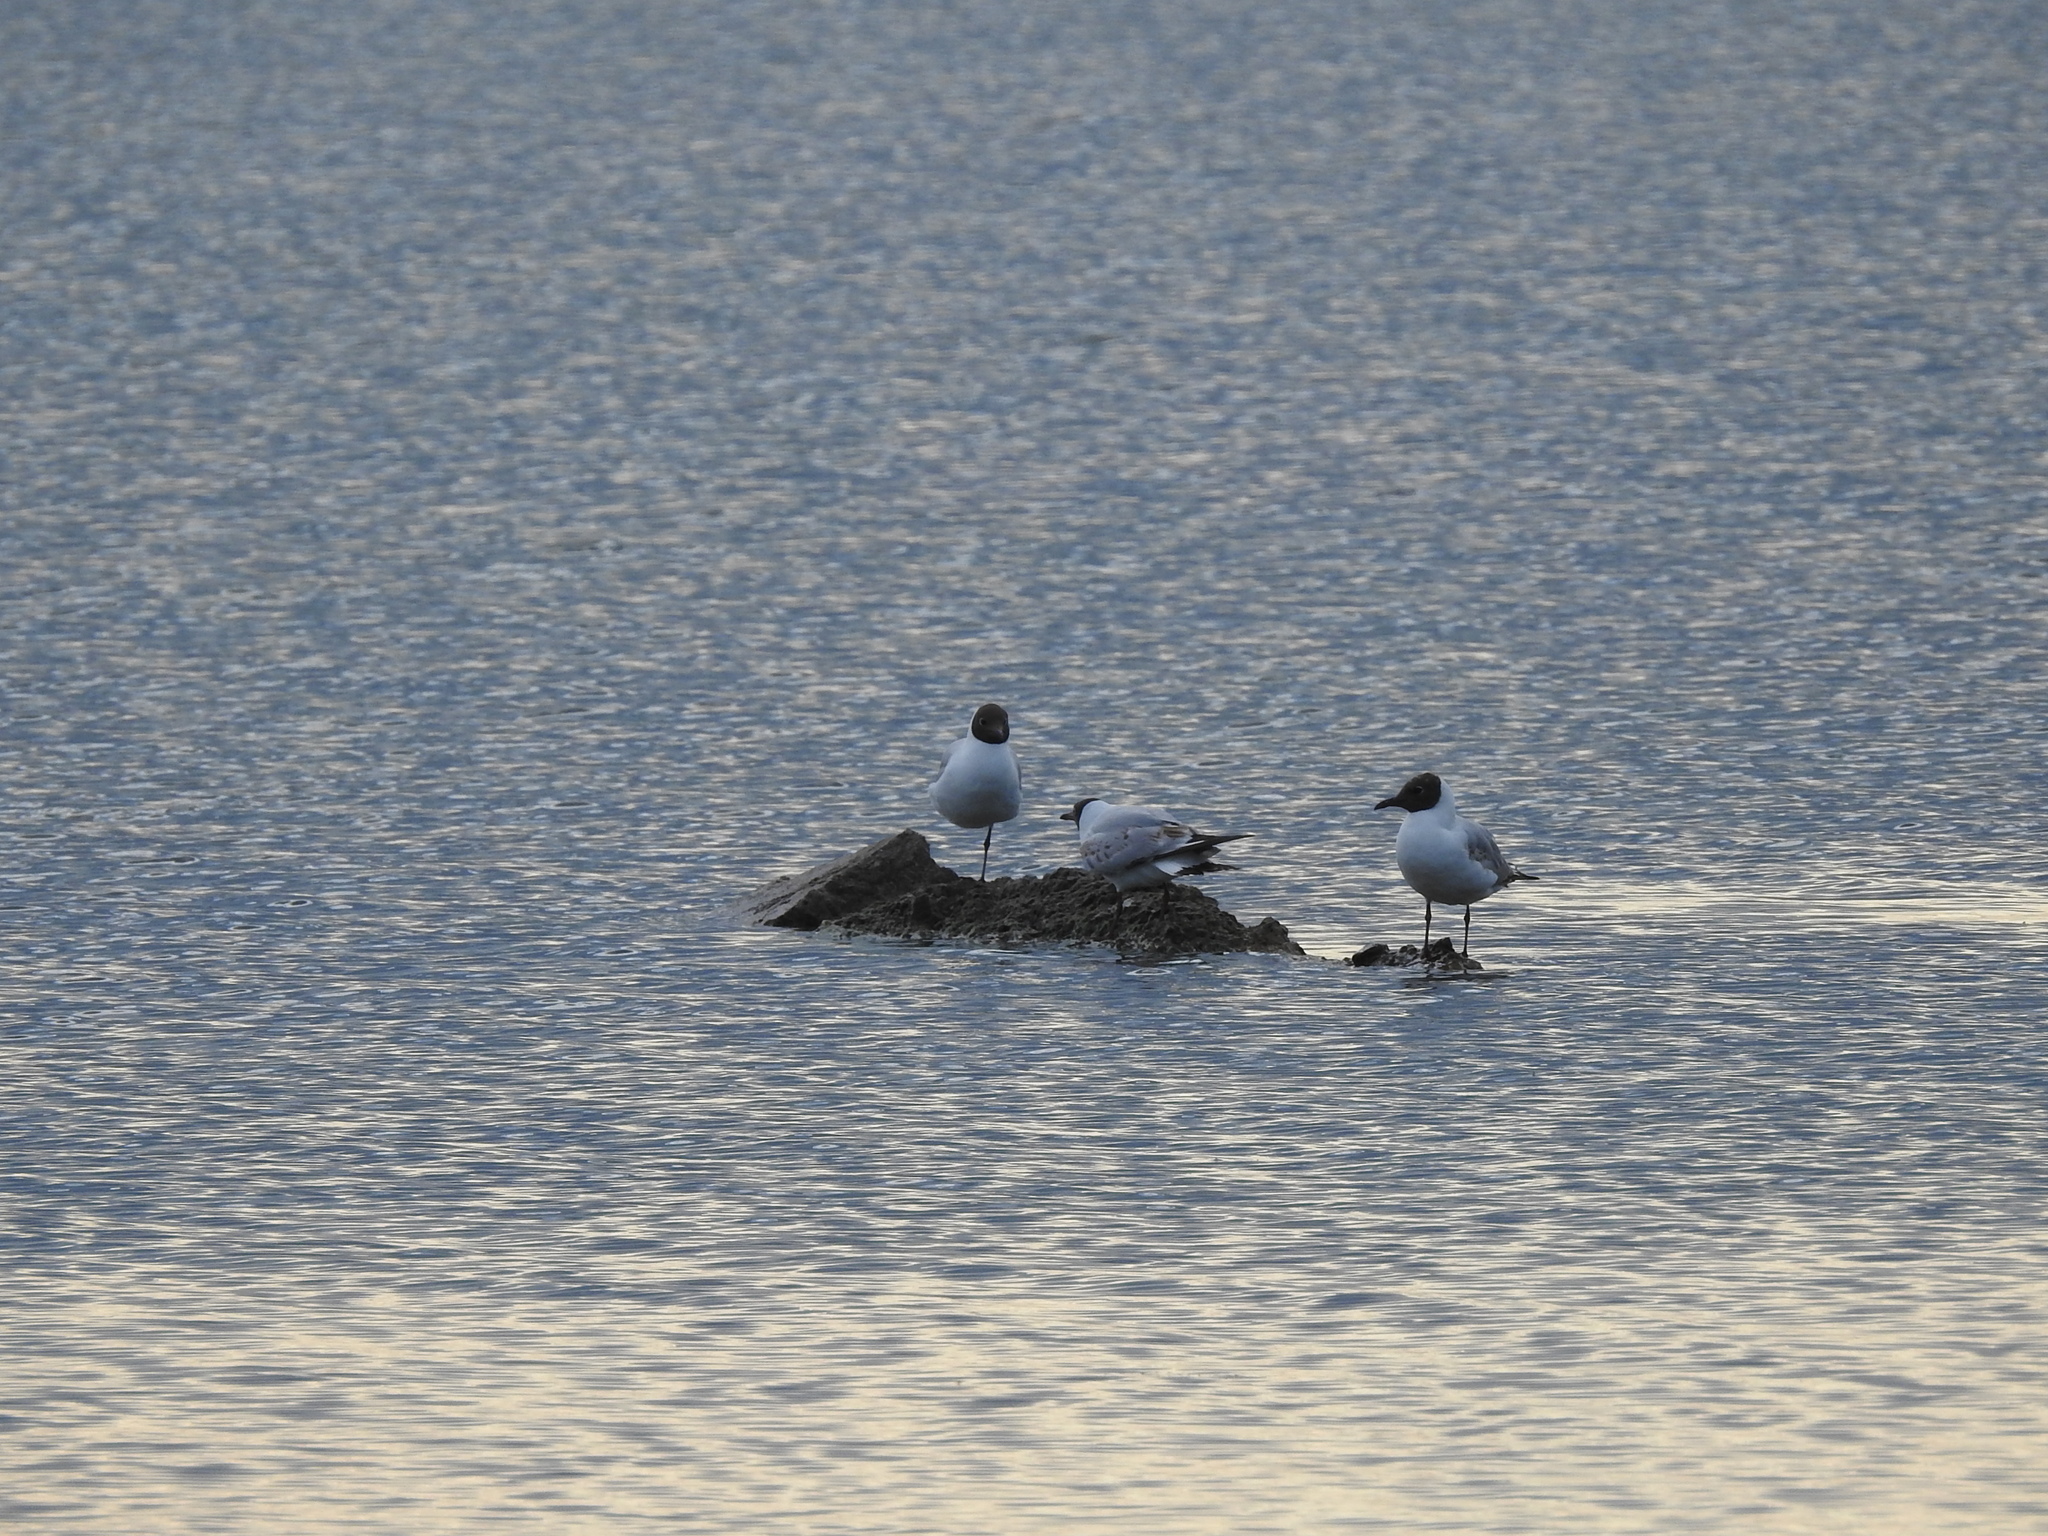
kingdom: Animalia
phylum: Chordata
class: Aves
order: Charadriiformes
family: Laridae
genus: Chroicocephalus
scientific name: Chroicocephalus ridibundus
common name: Black-headed gull
